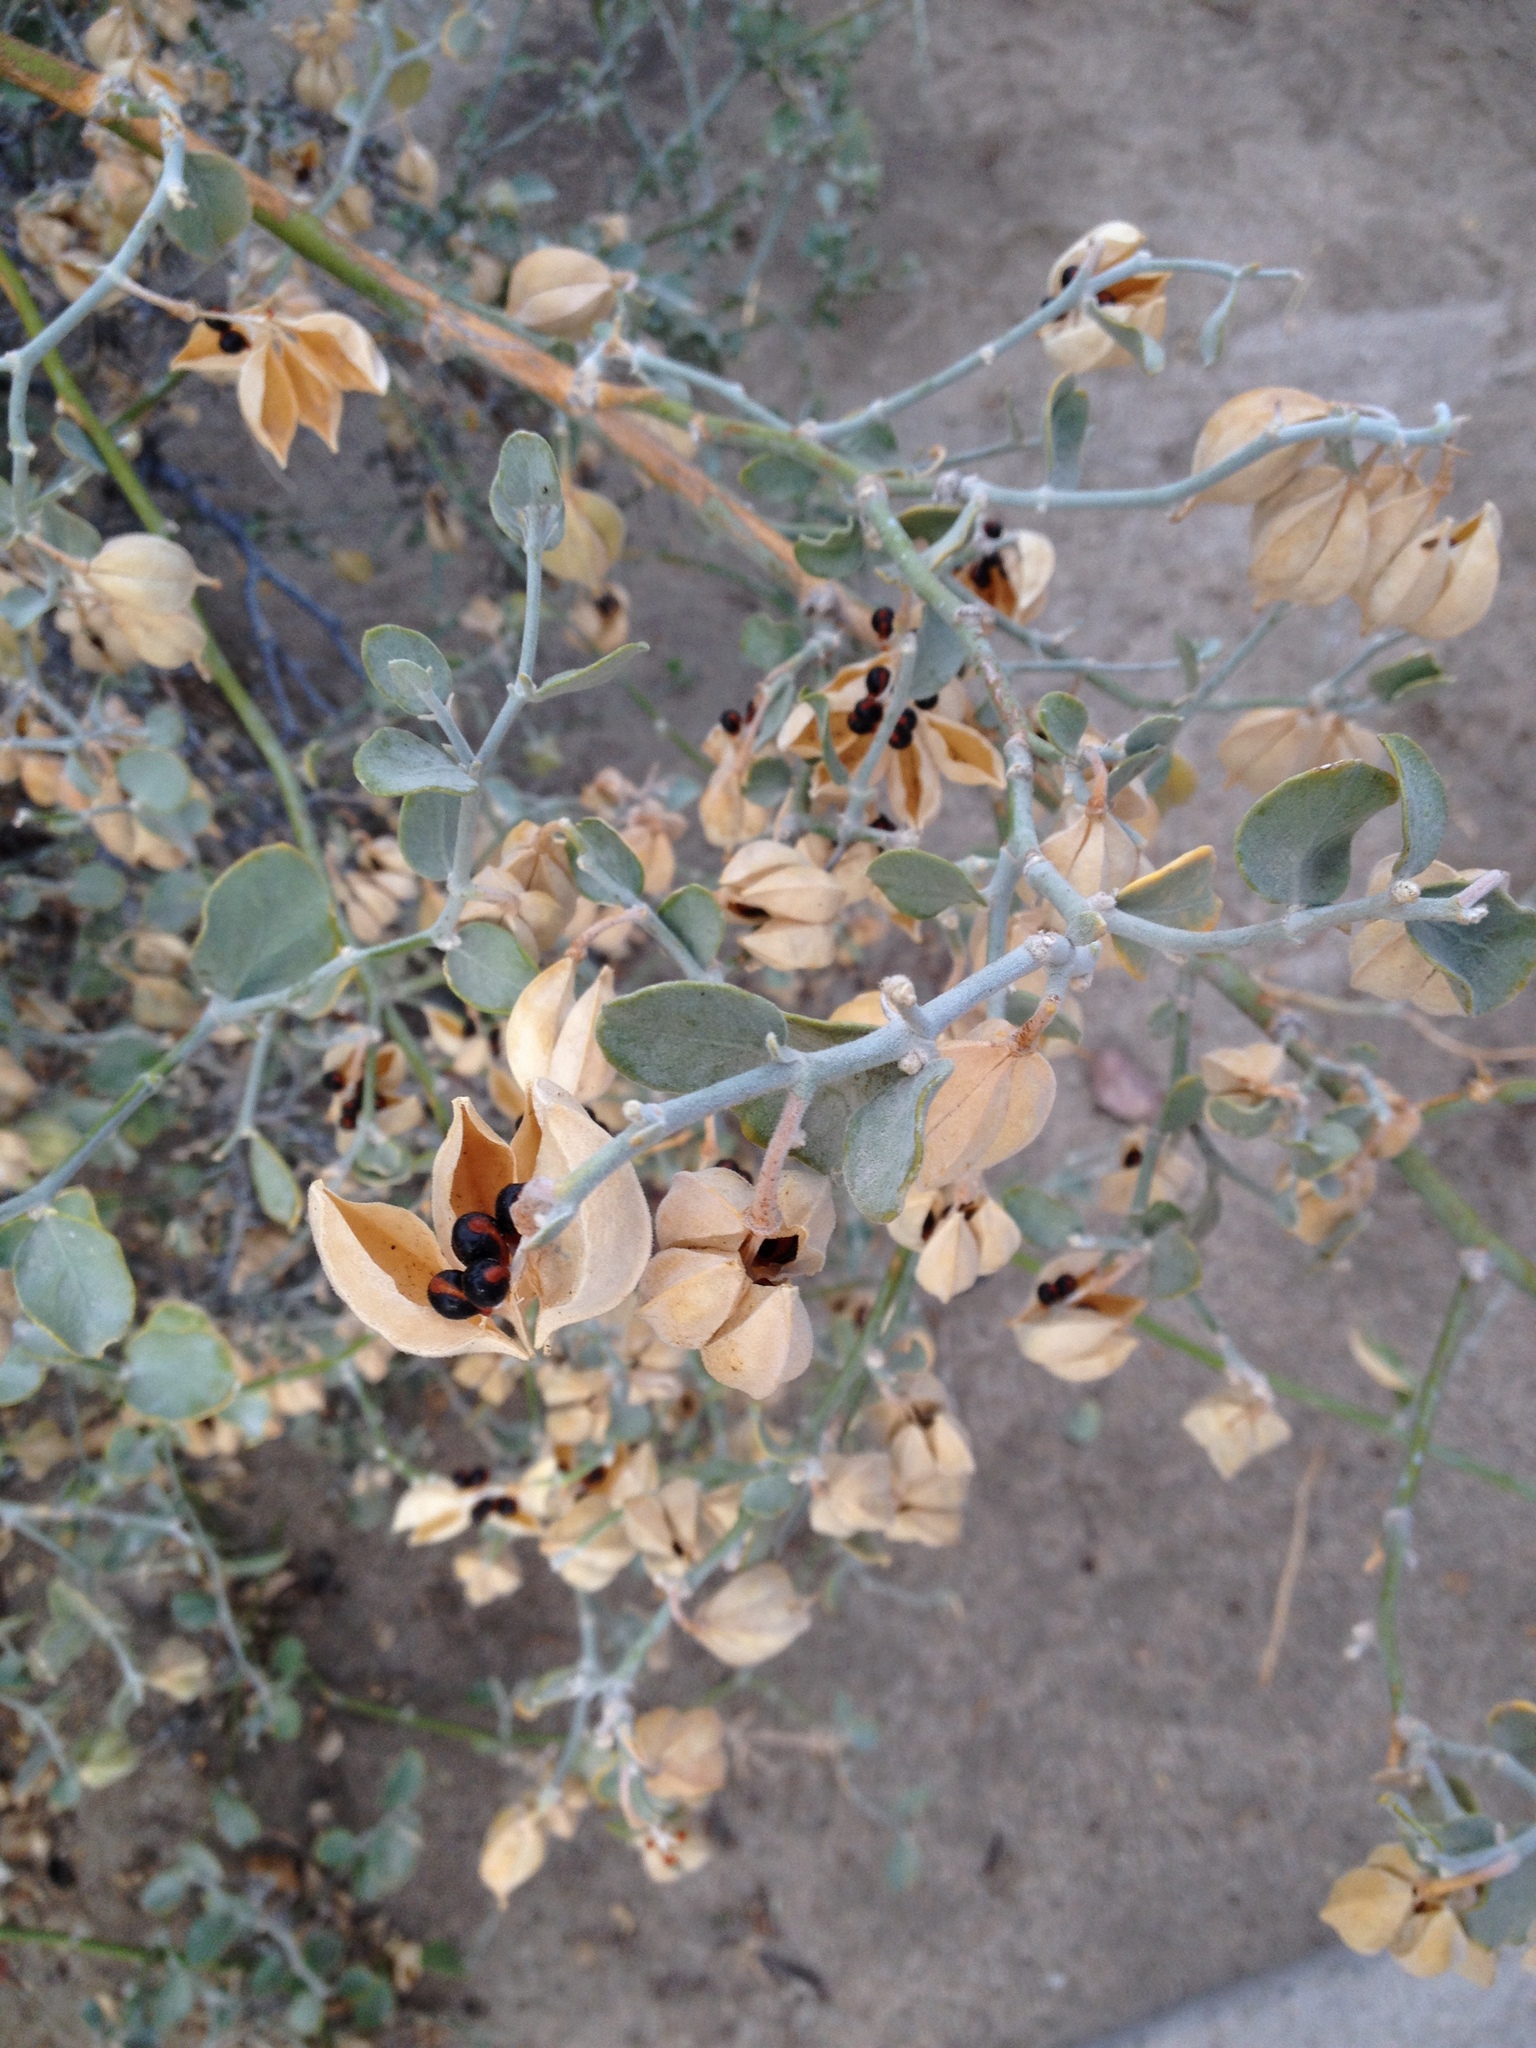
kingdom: Plantae
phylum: Tracheophyta
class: Magnoliopsida
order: Zygophyllales
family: Zygophyllaceae
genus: Viscainoa
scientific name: Viscainoa geniculata
